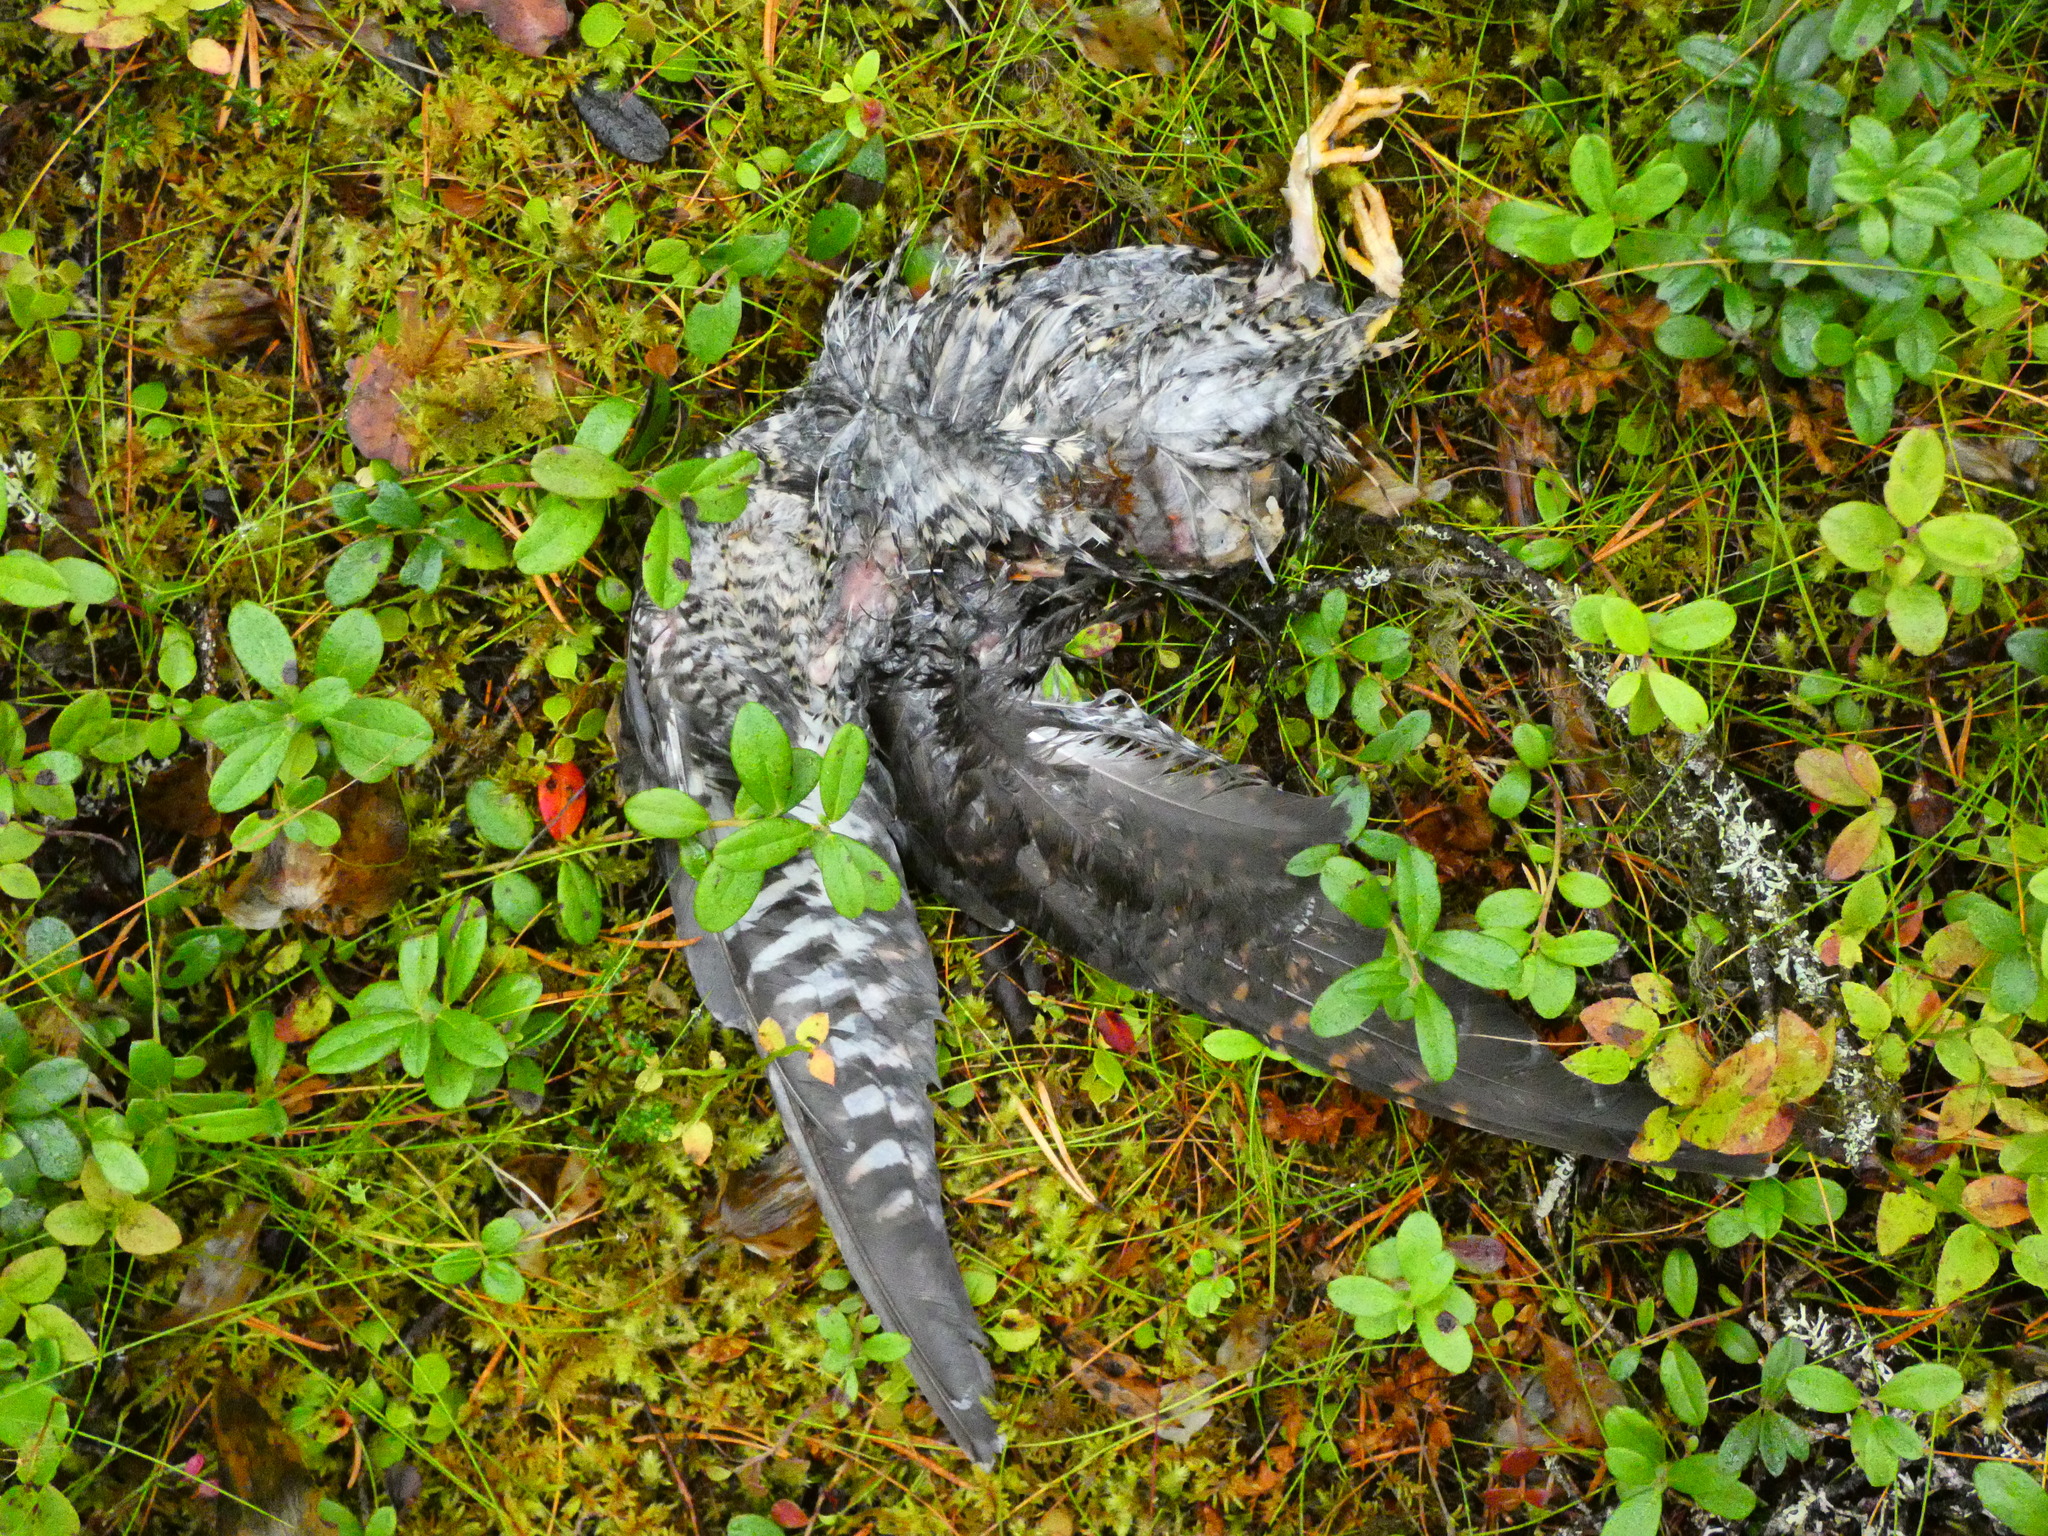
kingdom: Animalia
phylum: Chordata
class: Aves
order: Cuculiformes
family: Cuculidae
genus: Cuculus
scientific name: Cuculus canorus
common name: Common cuckoo
